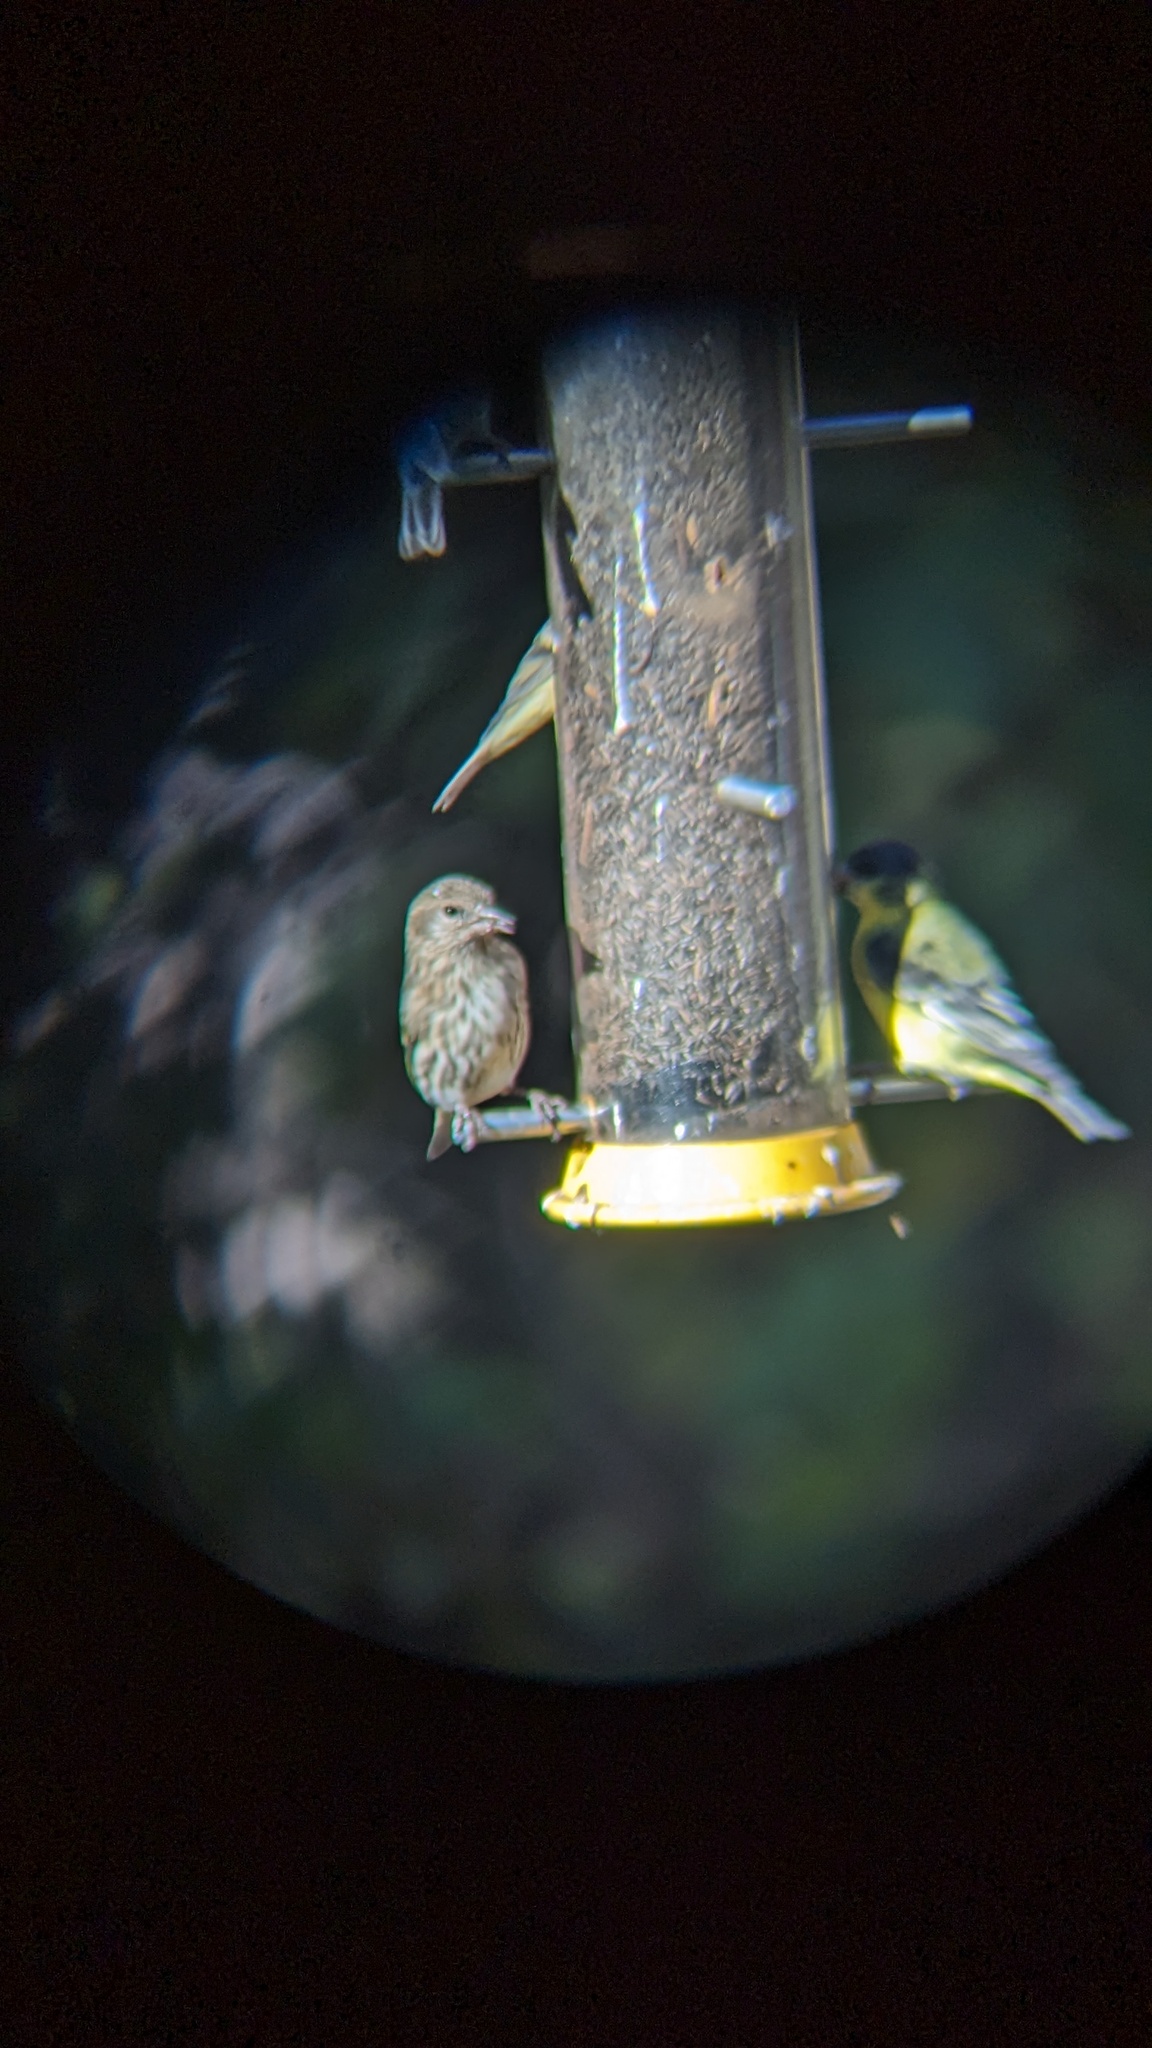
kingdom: Animalia
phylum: Chordata
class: Aves
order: Passeriformes
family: Fringillidae
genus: Spinus
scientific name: Spinus psaltria
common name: Lesser goldfinch
